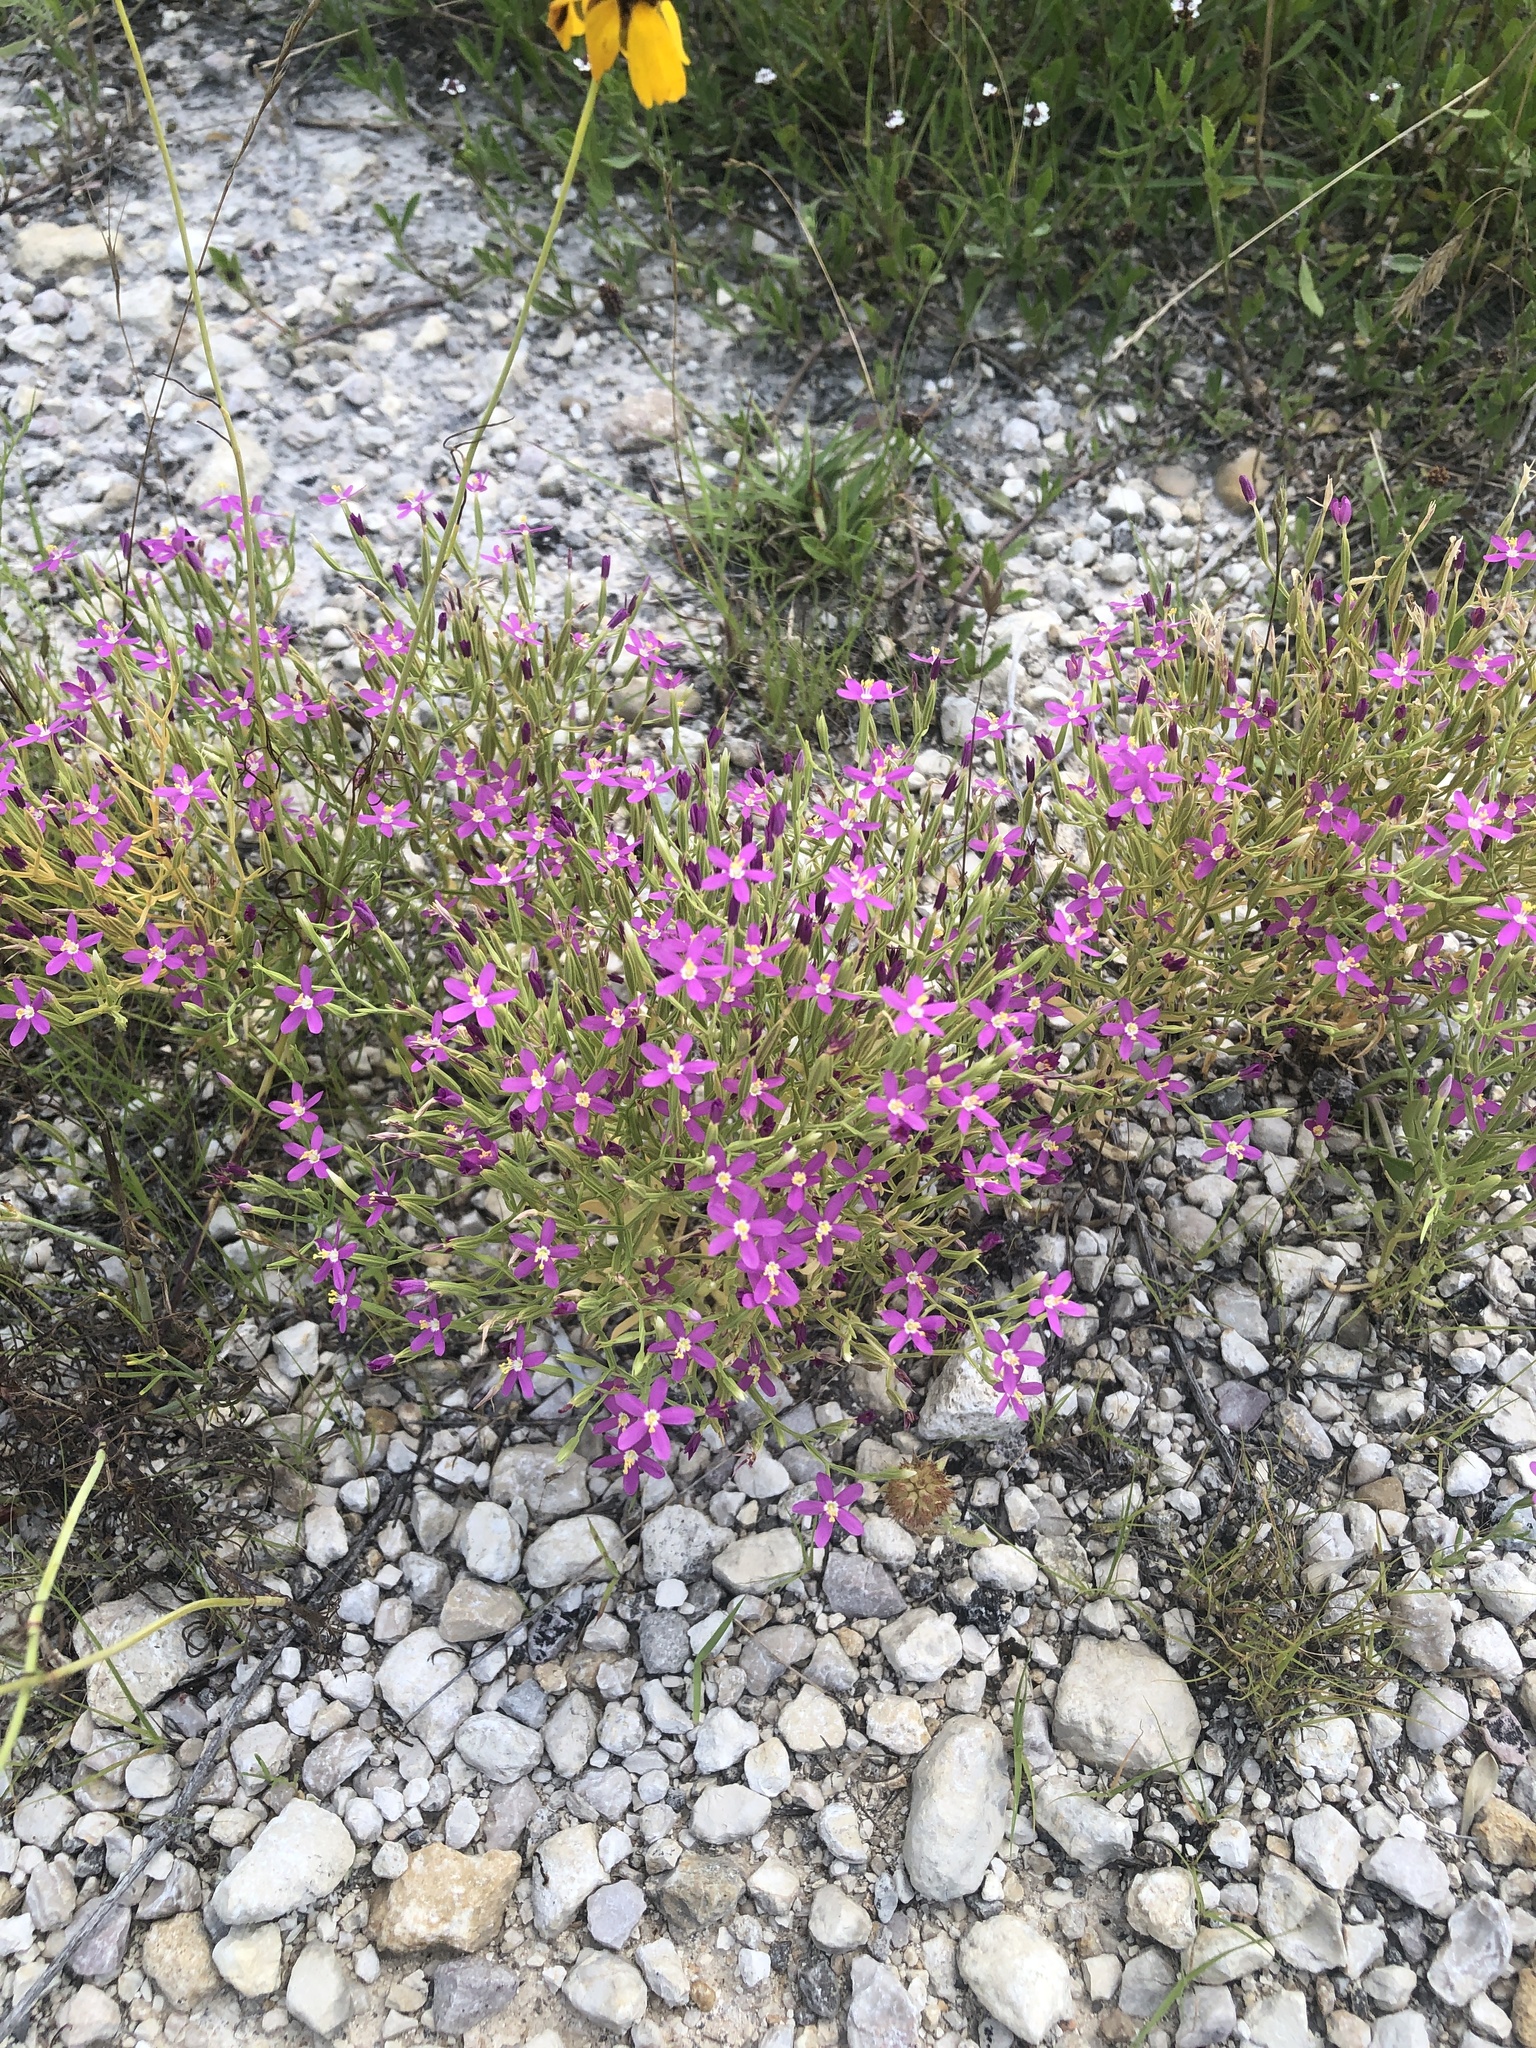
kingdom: Plantae
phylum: Tracheophyta
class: Magnoliopsida
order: Gentianales
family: Gentianaceae
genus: Zeltnera
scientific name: Zeltnera beyrichii
